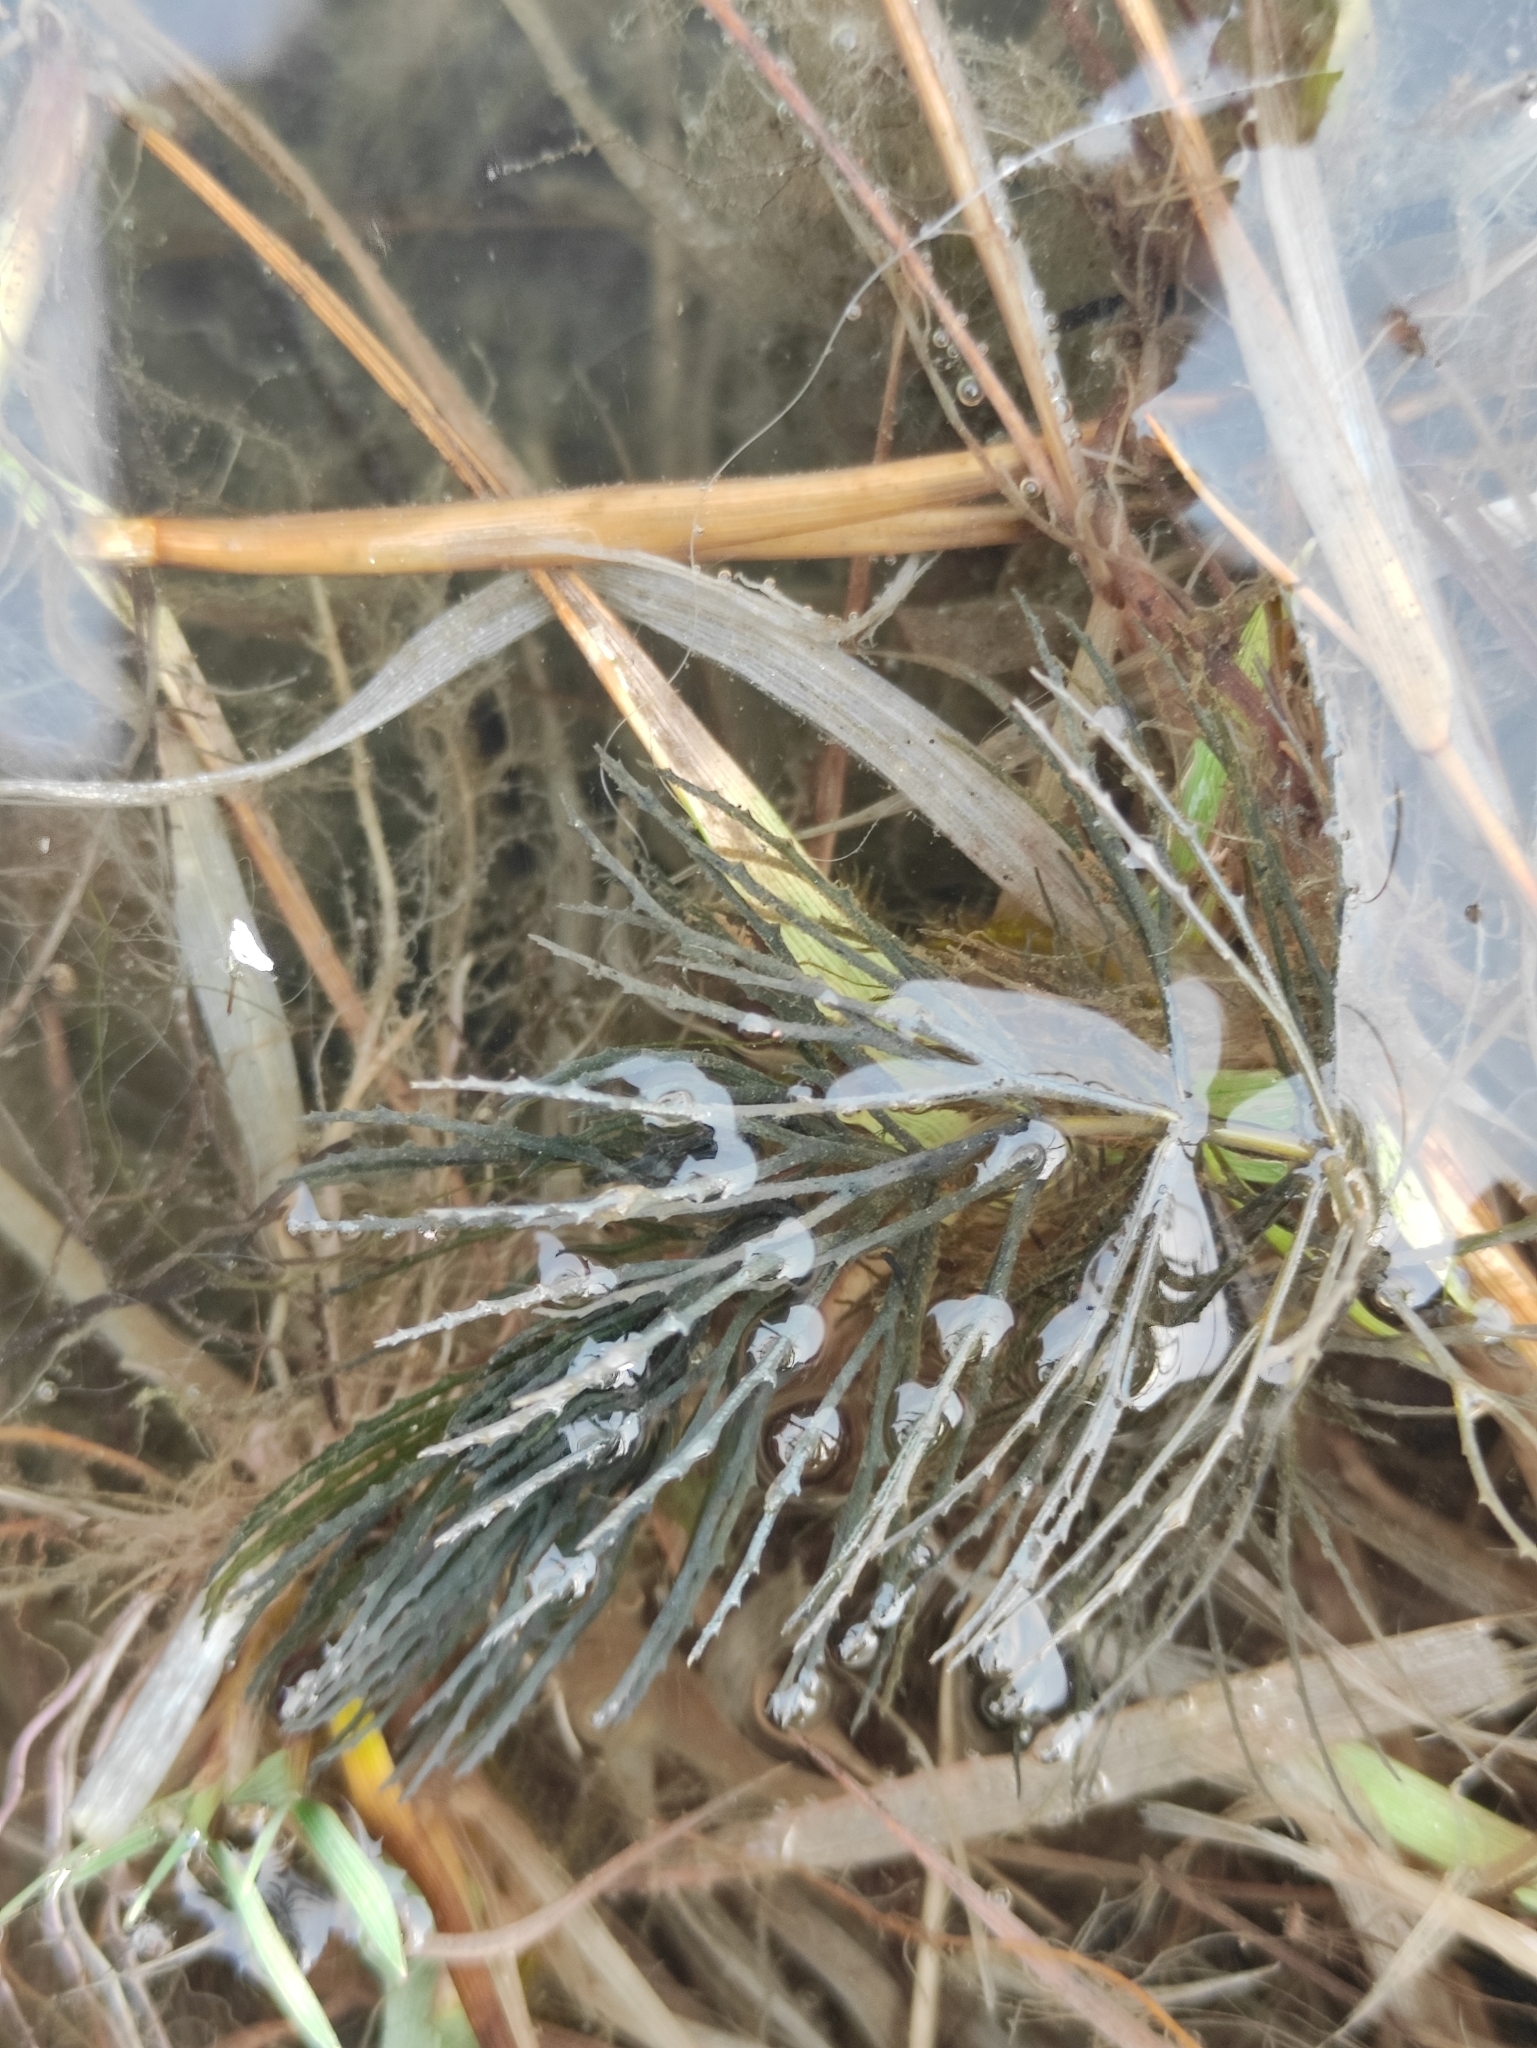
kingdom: Plantae
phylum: Tracheophyta
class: Magnoliopsida
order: Ceratophyllales
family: Ceratophyllaceae
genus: Ceratophyllum
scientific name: Ceratophyllum demersum
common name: Rigid hornwort
